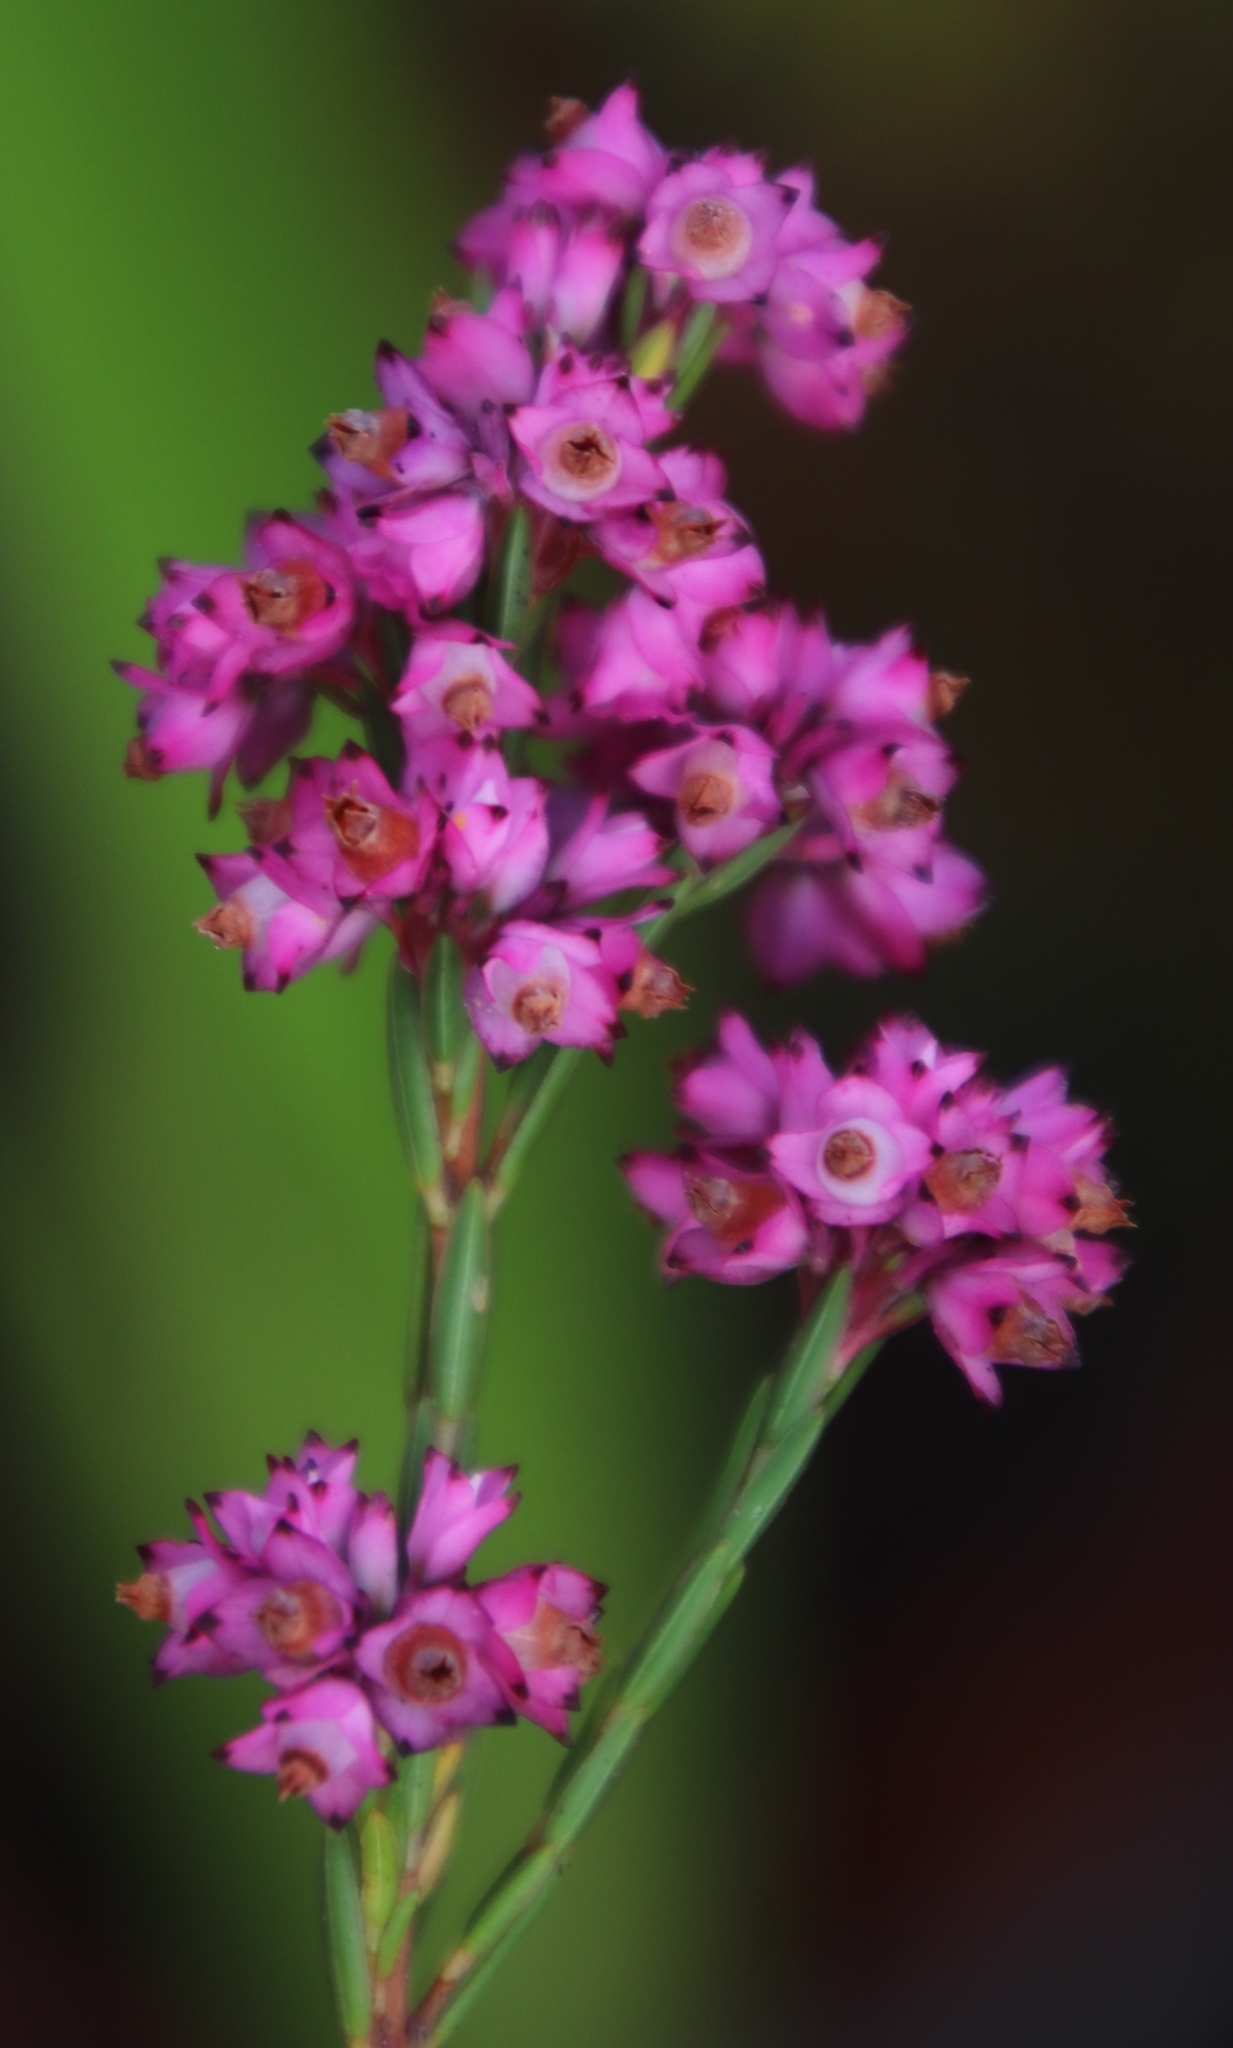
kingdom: Plantae
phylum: Tracheophyta
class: Magnoliopsida
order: Ericales
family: Ericaceae
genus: Erica
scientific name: Erica corifolia
